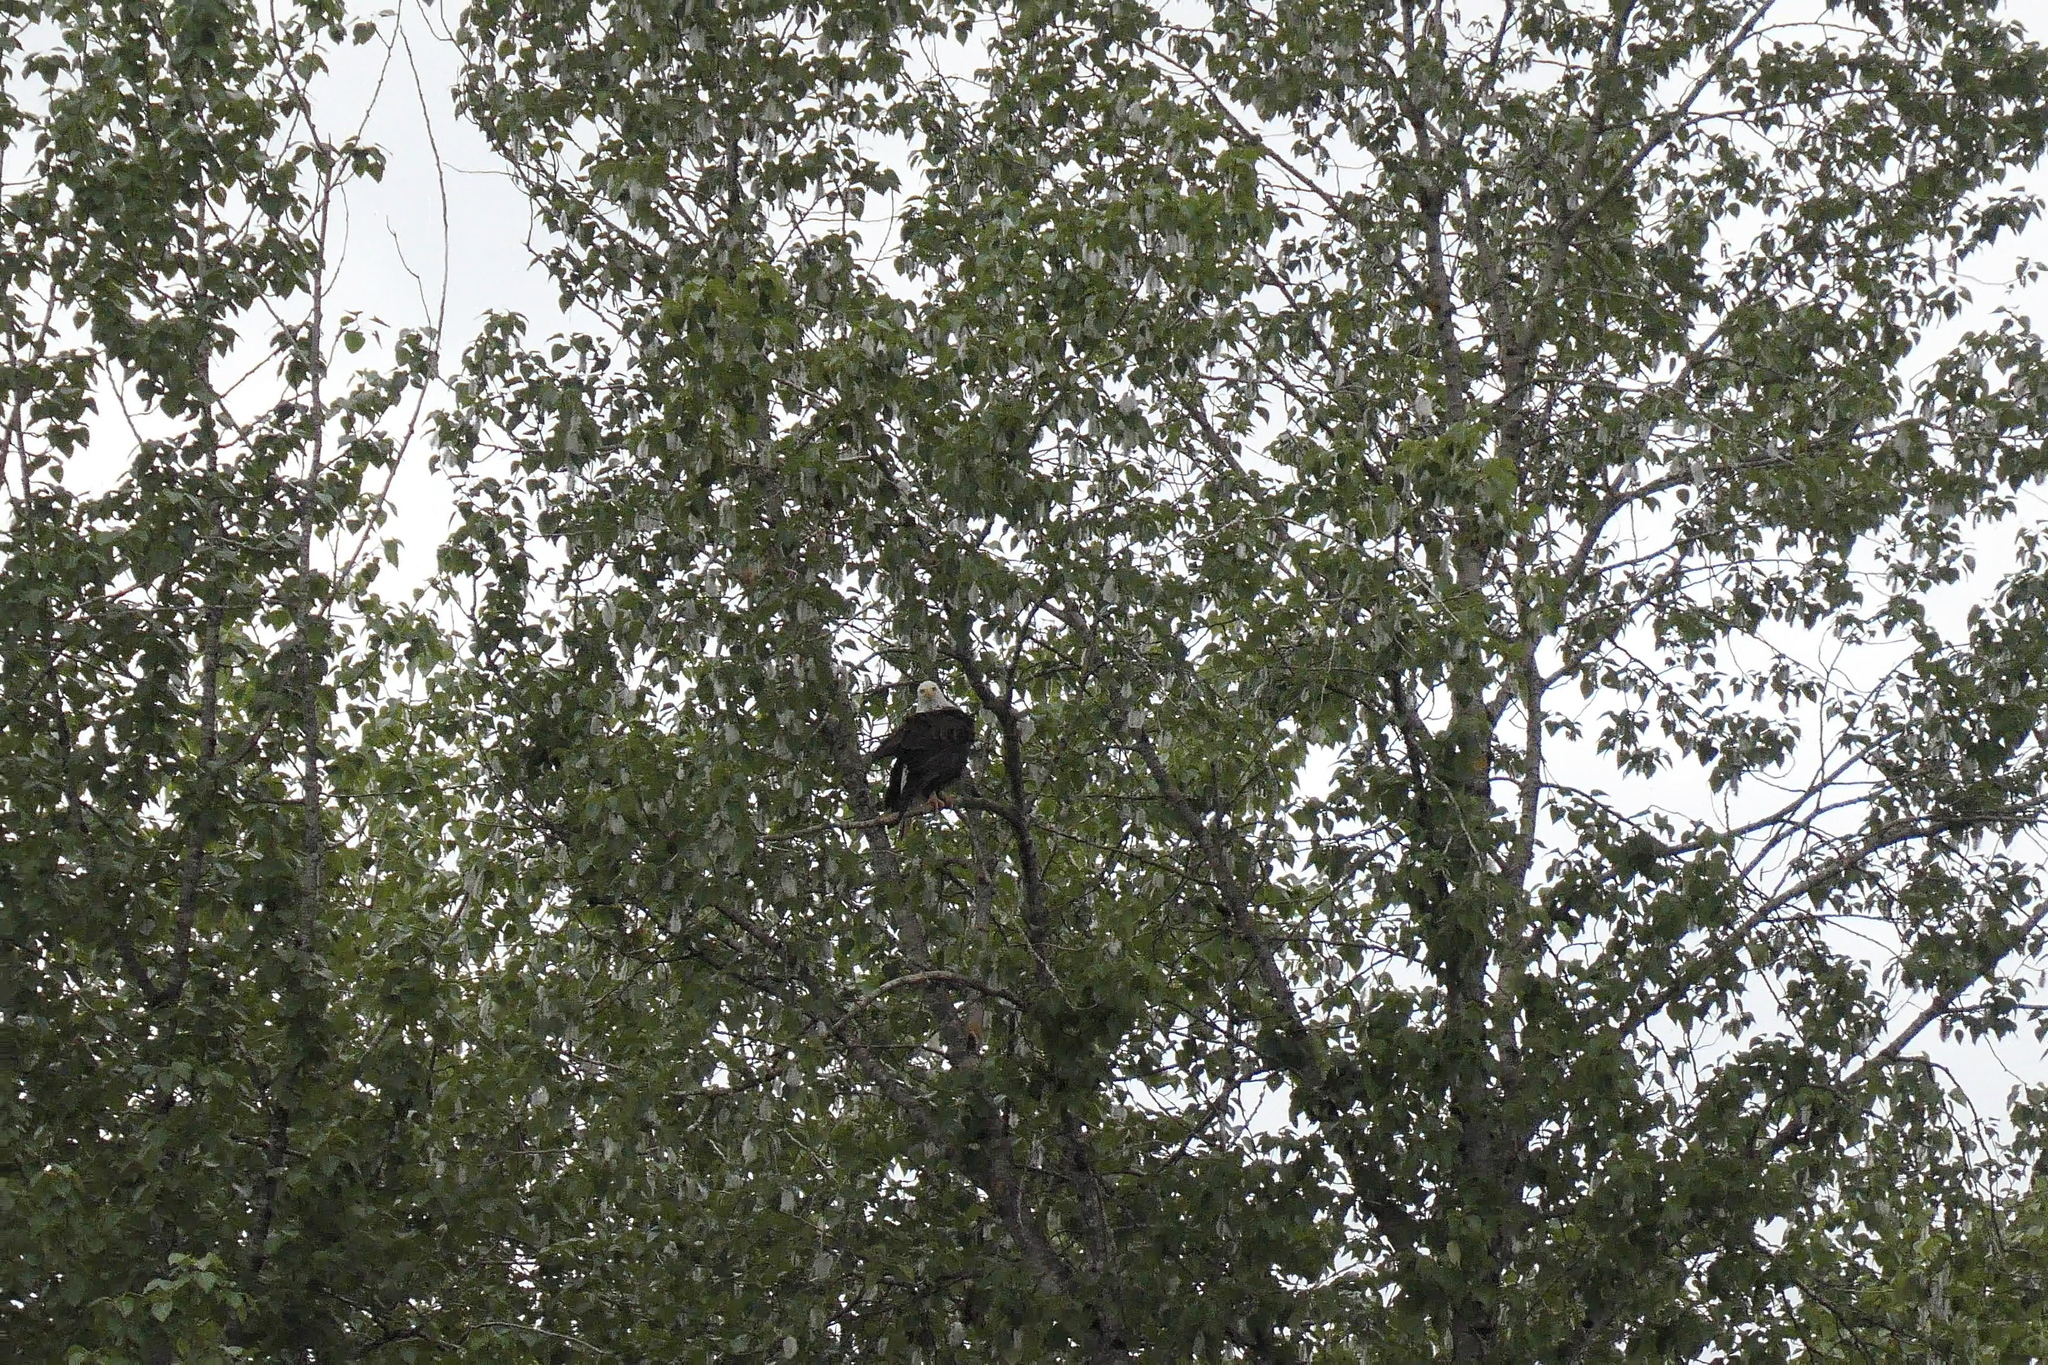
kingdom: Animalia
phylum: Chordata
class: Aves
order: Accipitriformes
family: Accipitridae
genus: Haliaeetus
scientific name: Haliaeetus leucocephalus
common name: Bald eagle
